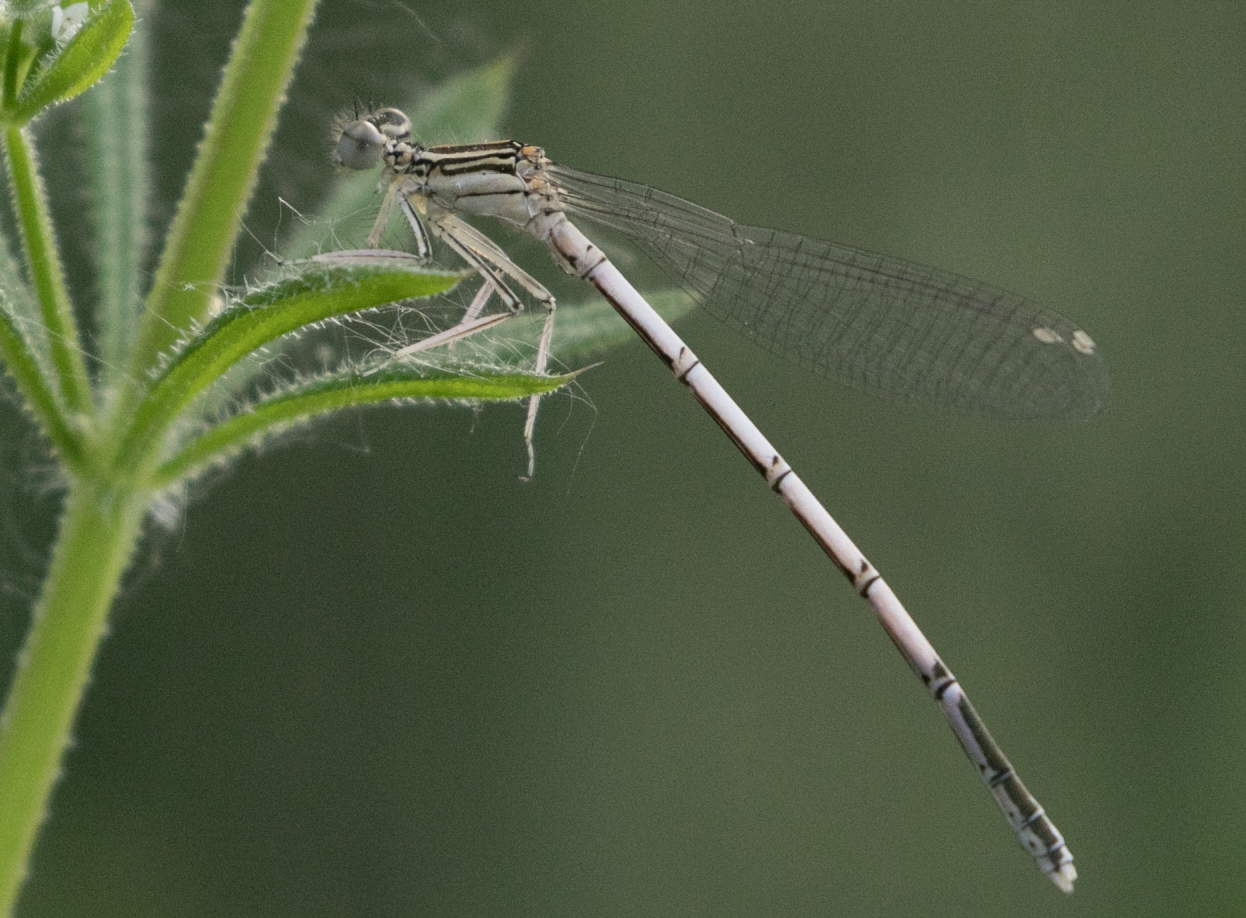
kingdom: Animalia
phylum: Arthropoda
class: Insecta
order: Odonata
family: Platycnemididae
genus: Platycnemis
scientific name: Platycnemis pennipes
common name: White-legged damselfly
